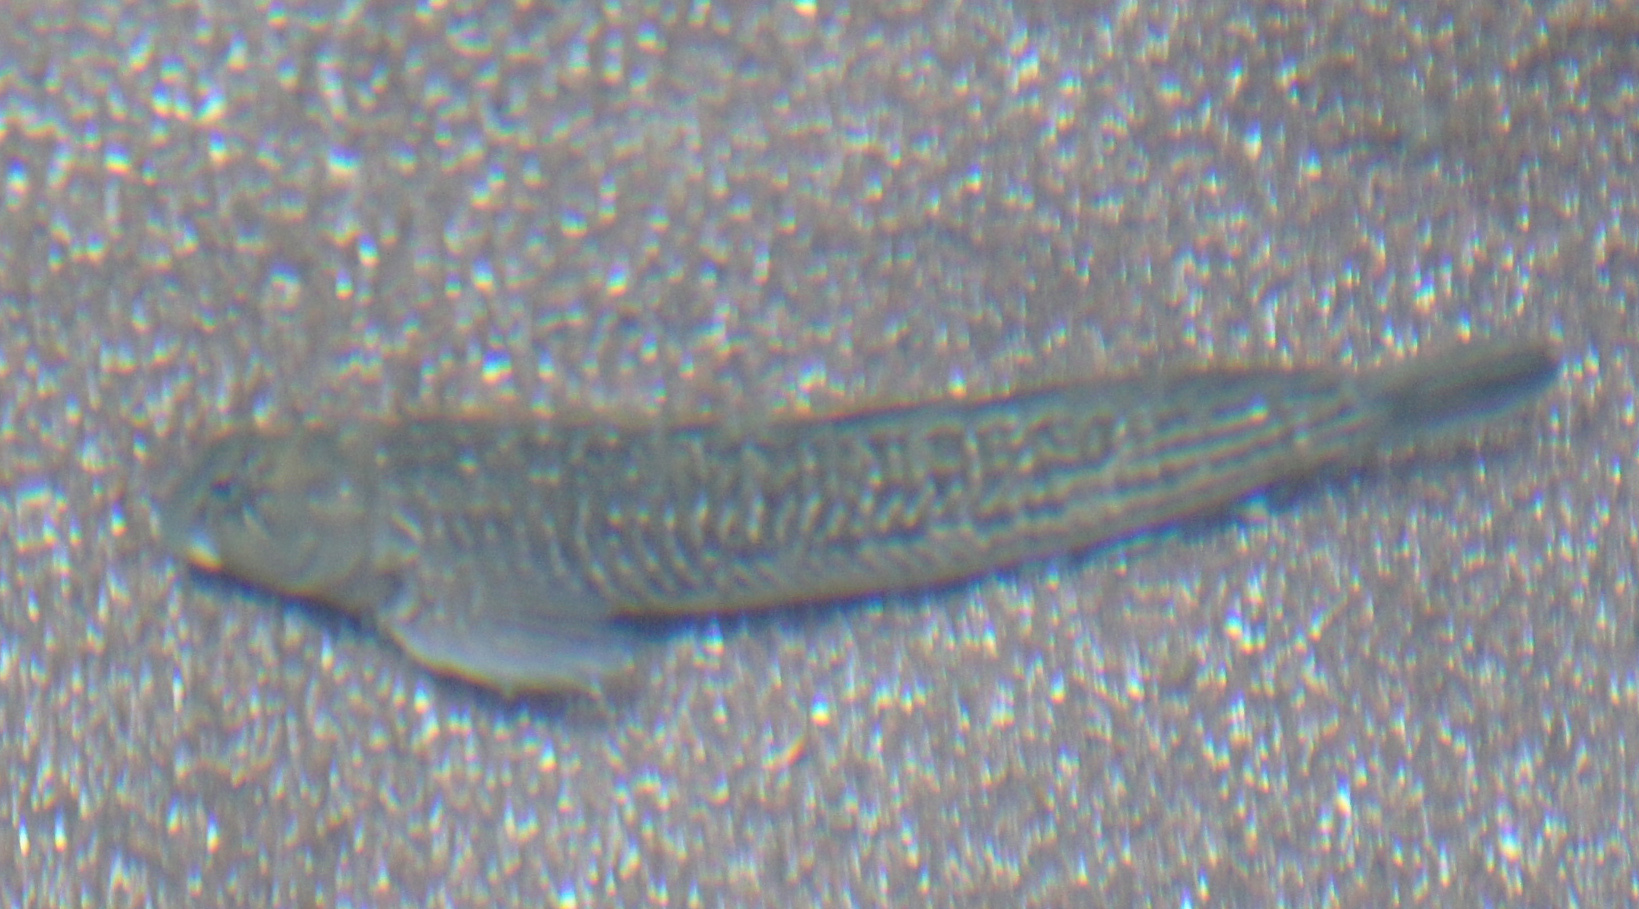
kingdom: Animalia
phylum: Chordata
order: Perciformes
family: Blenniidae
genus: Parablennius
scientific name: Parablennius parvicornis
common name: Rock-pool blenny
